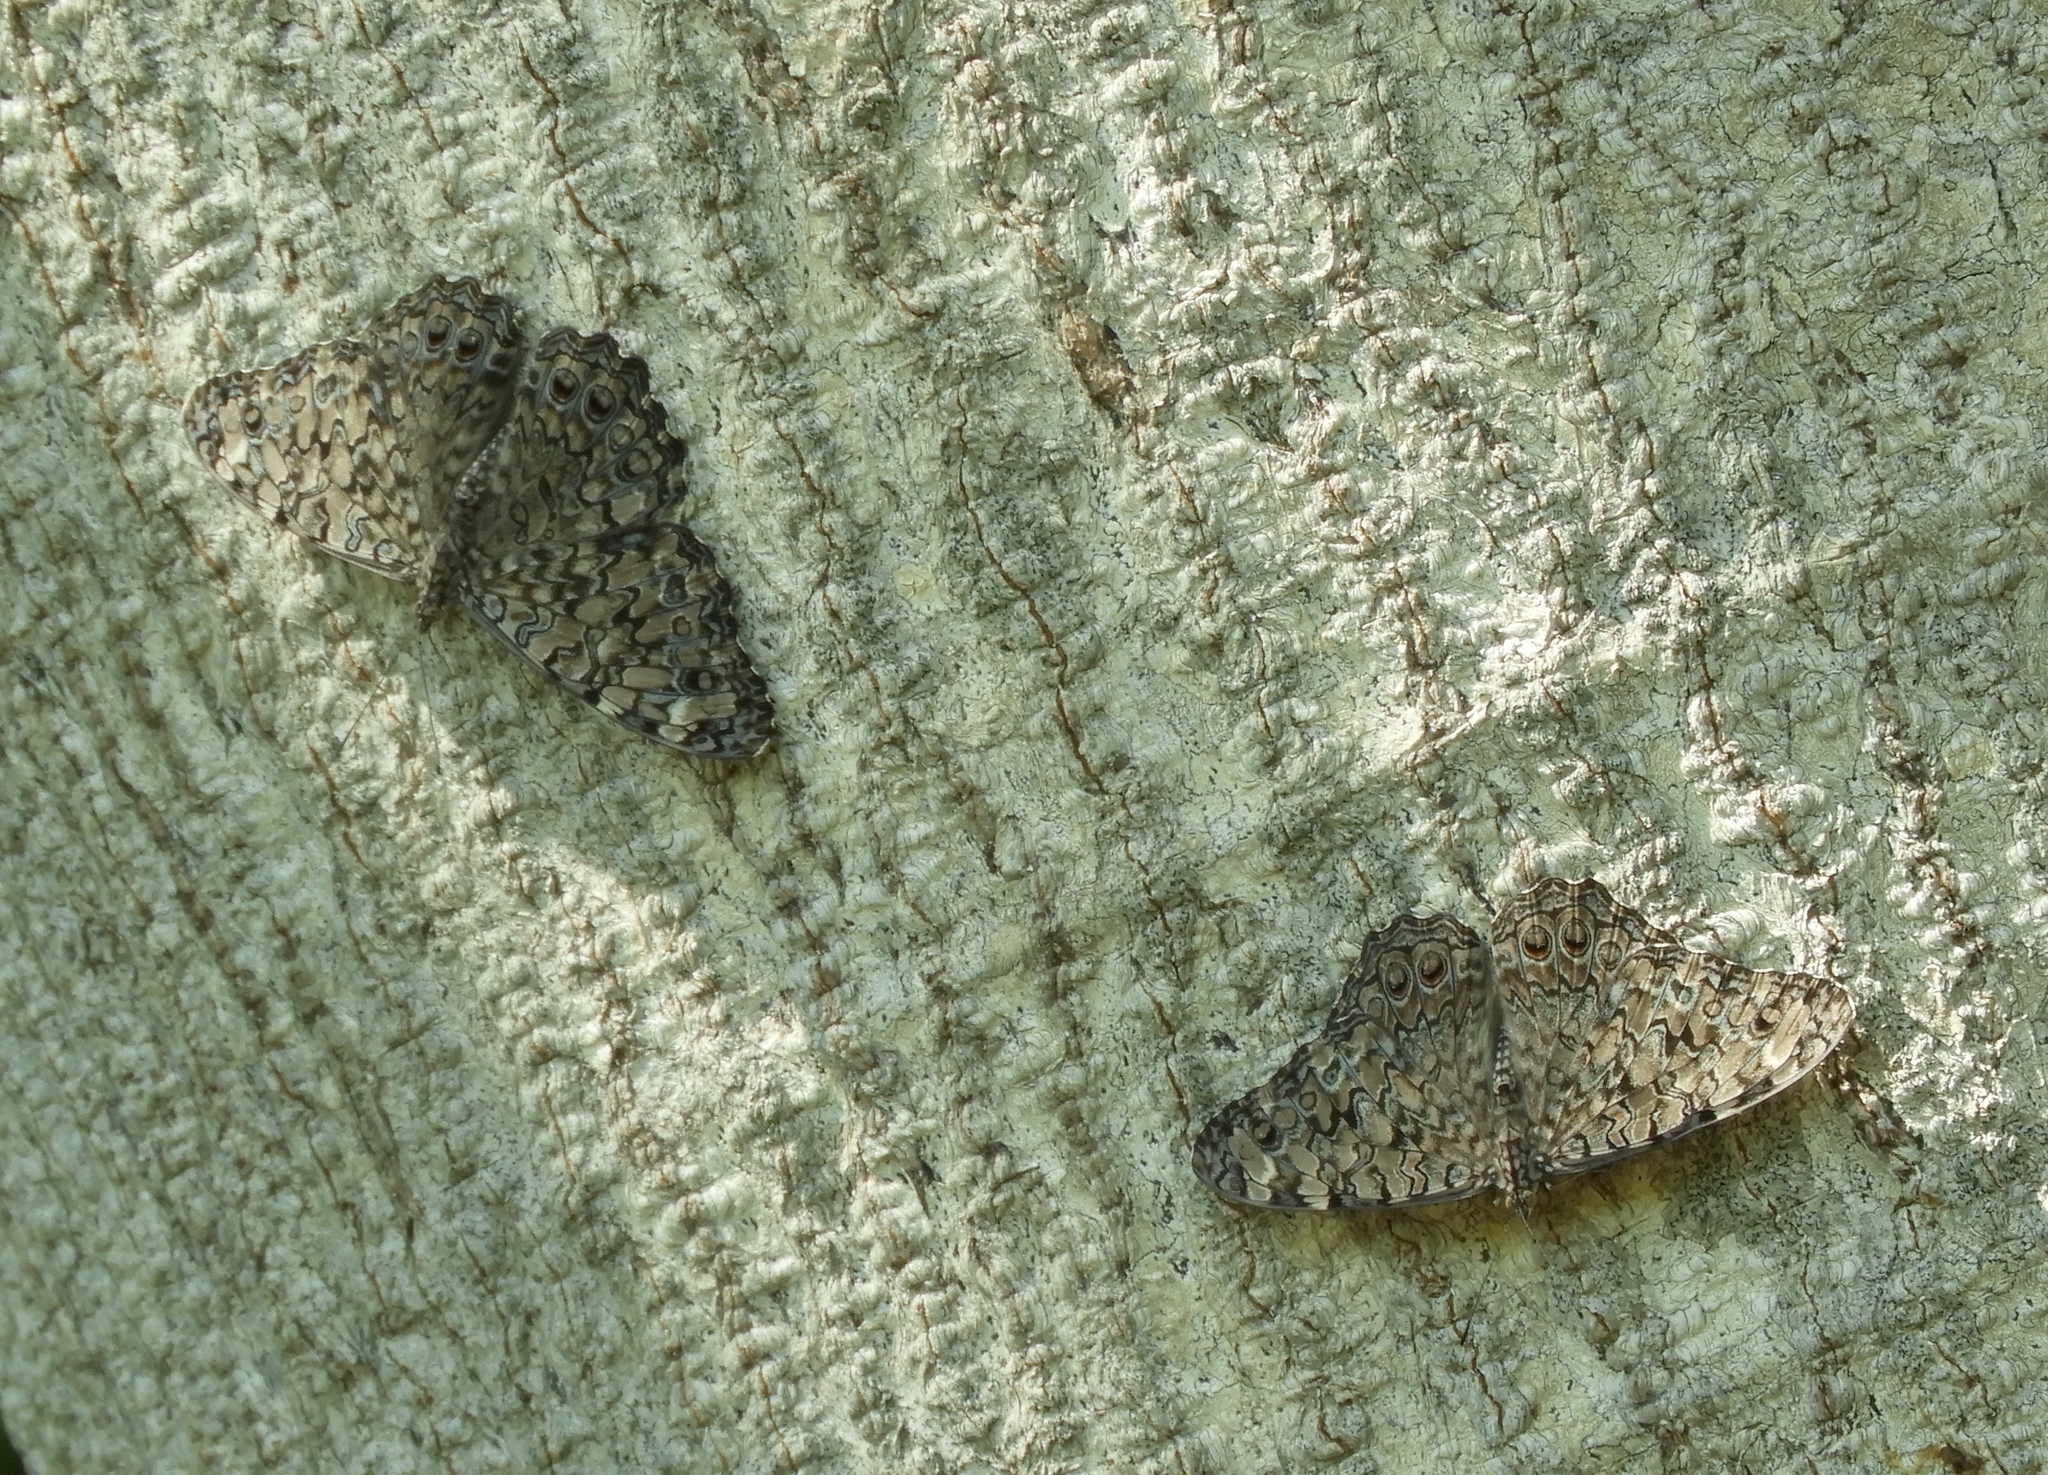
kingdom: Animalia
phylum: Arthropoda
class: Insecta
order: Lepidoptera
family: Nymphalidae
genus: Hamadryas
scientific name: Hamadryas februa
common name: Gray cracker
